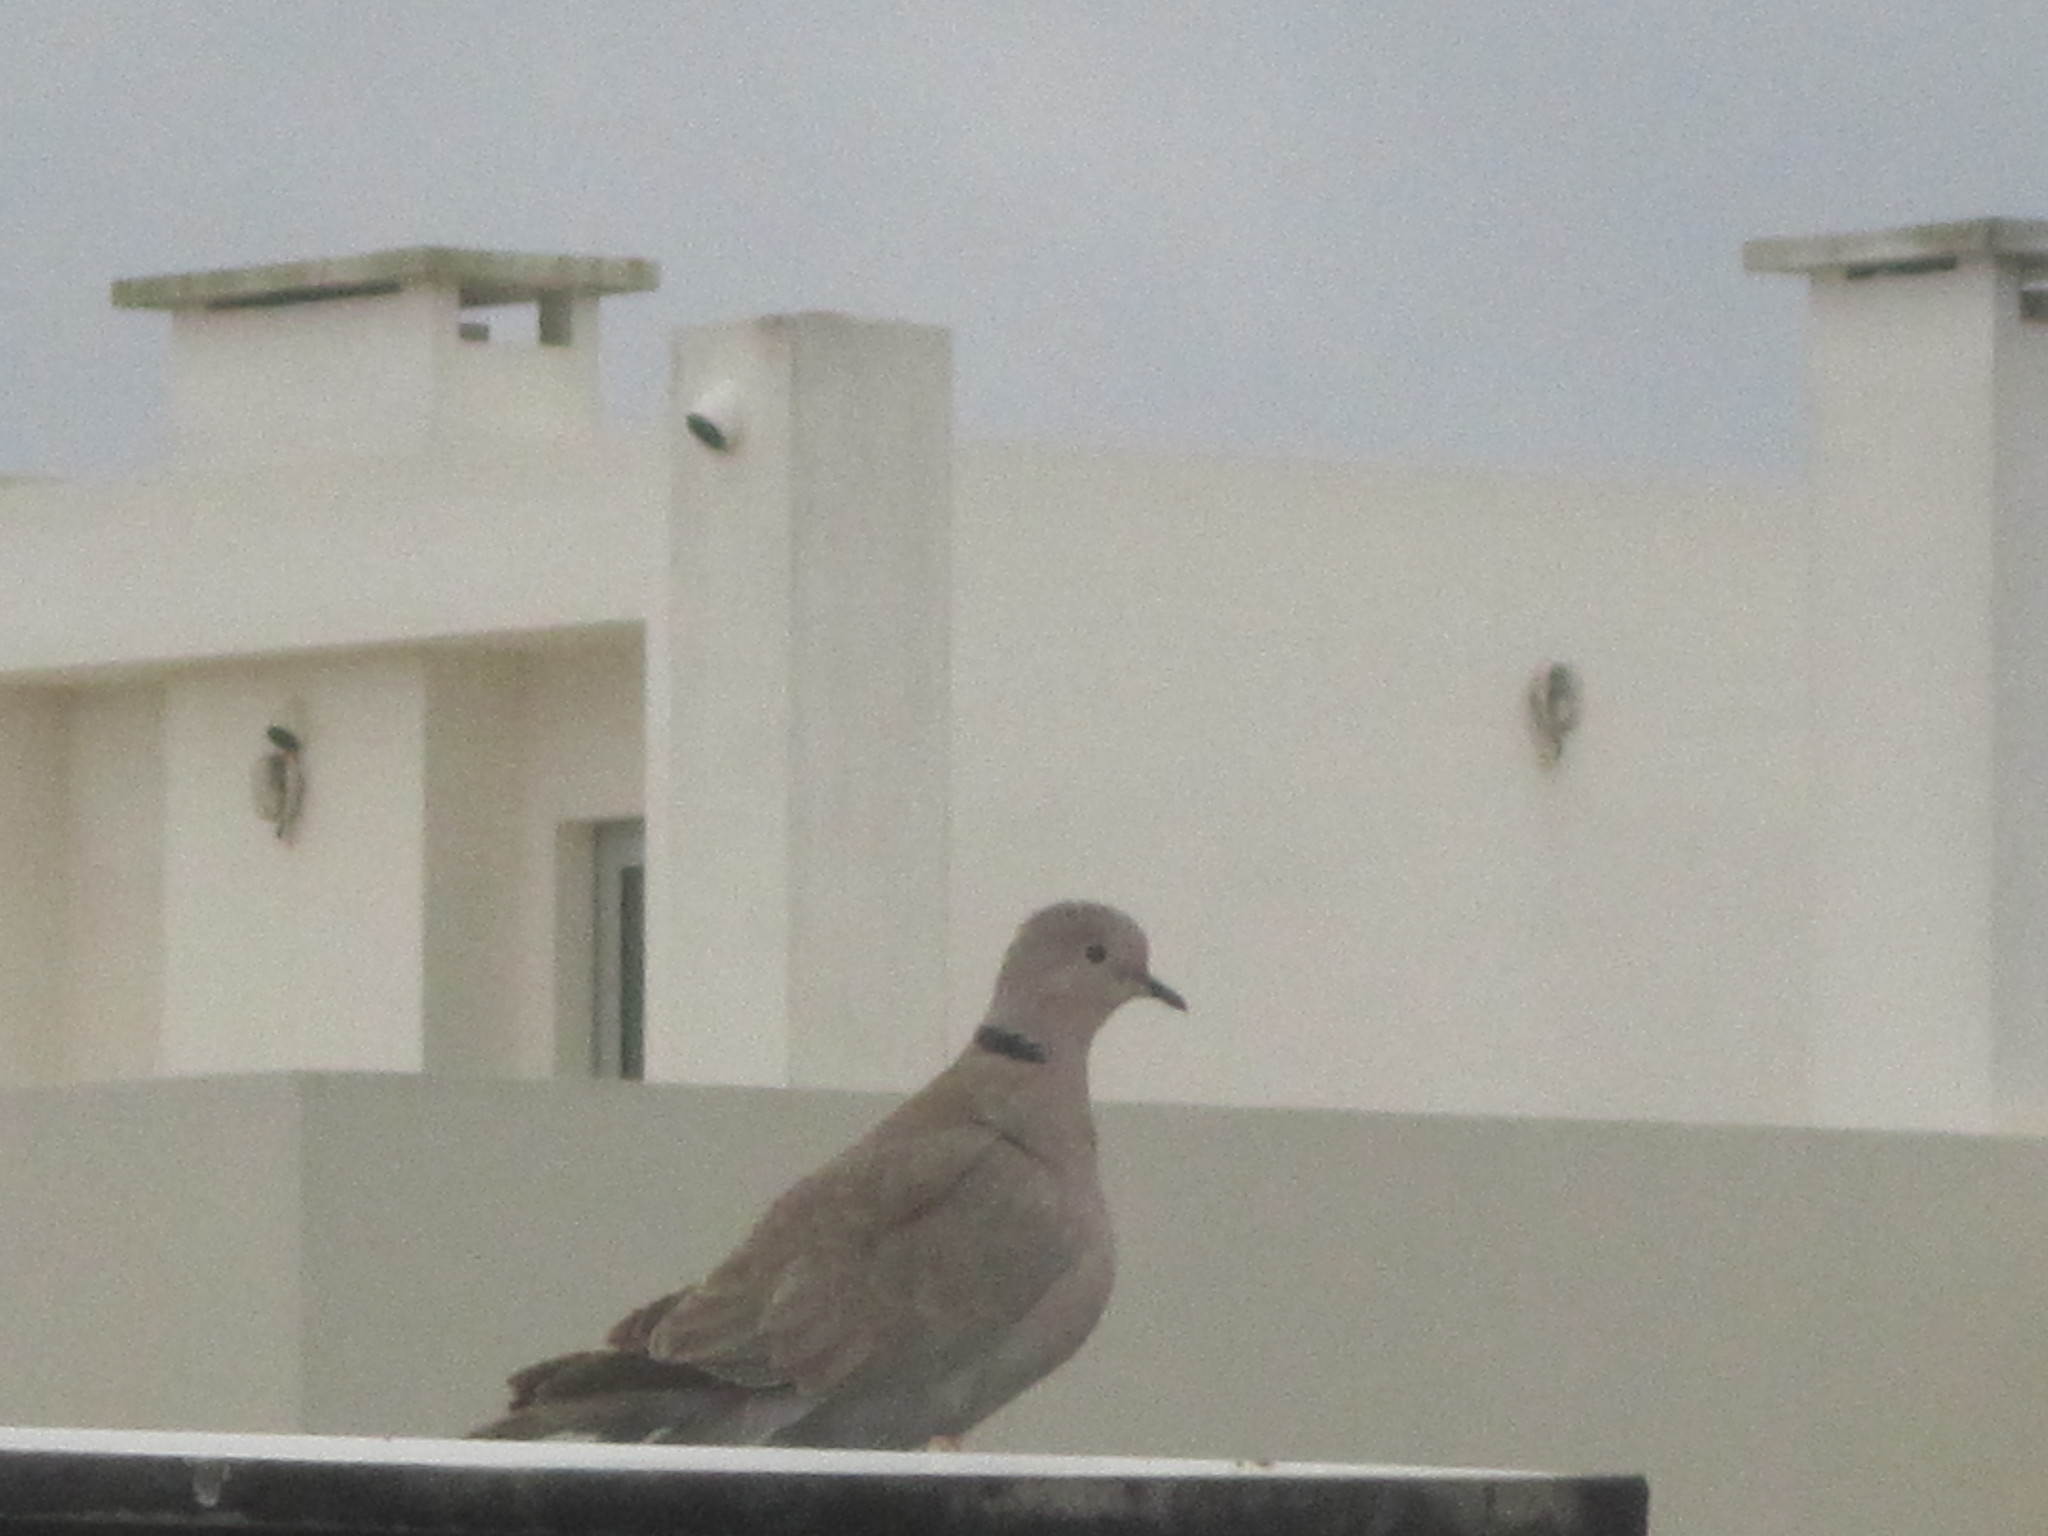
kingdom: Animalia
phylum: Chordata
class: Aves
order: Columbiformes
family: Columbidae
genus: Streptopelia
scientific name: Streptopelia decaocto
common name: Eurasian collared dove
